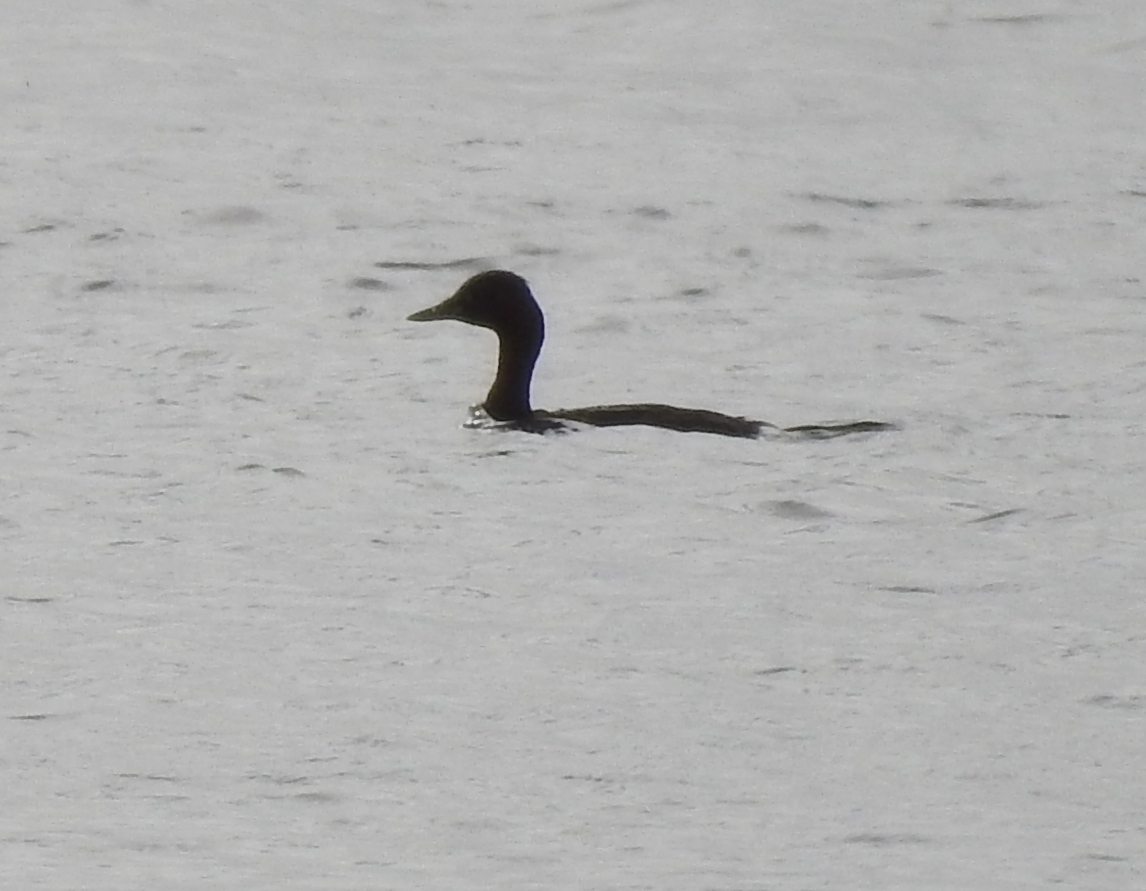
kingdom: Animalia
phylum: Chordata
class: Aves
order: Podicipediformes
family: Podicipedidae
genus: Tachybaptus
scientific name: Tachybaptus ruficollis
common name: Little grebe
